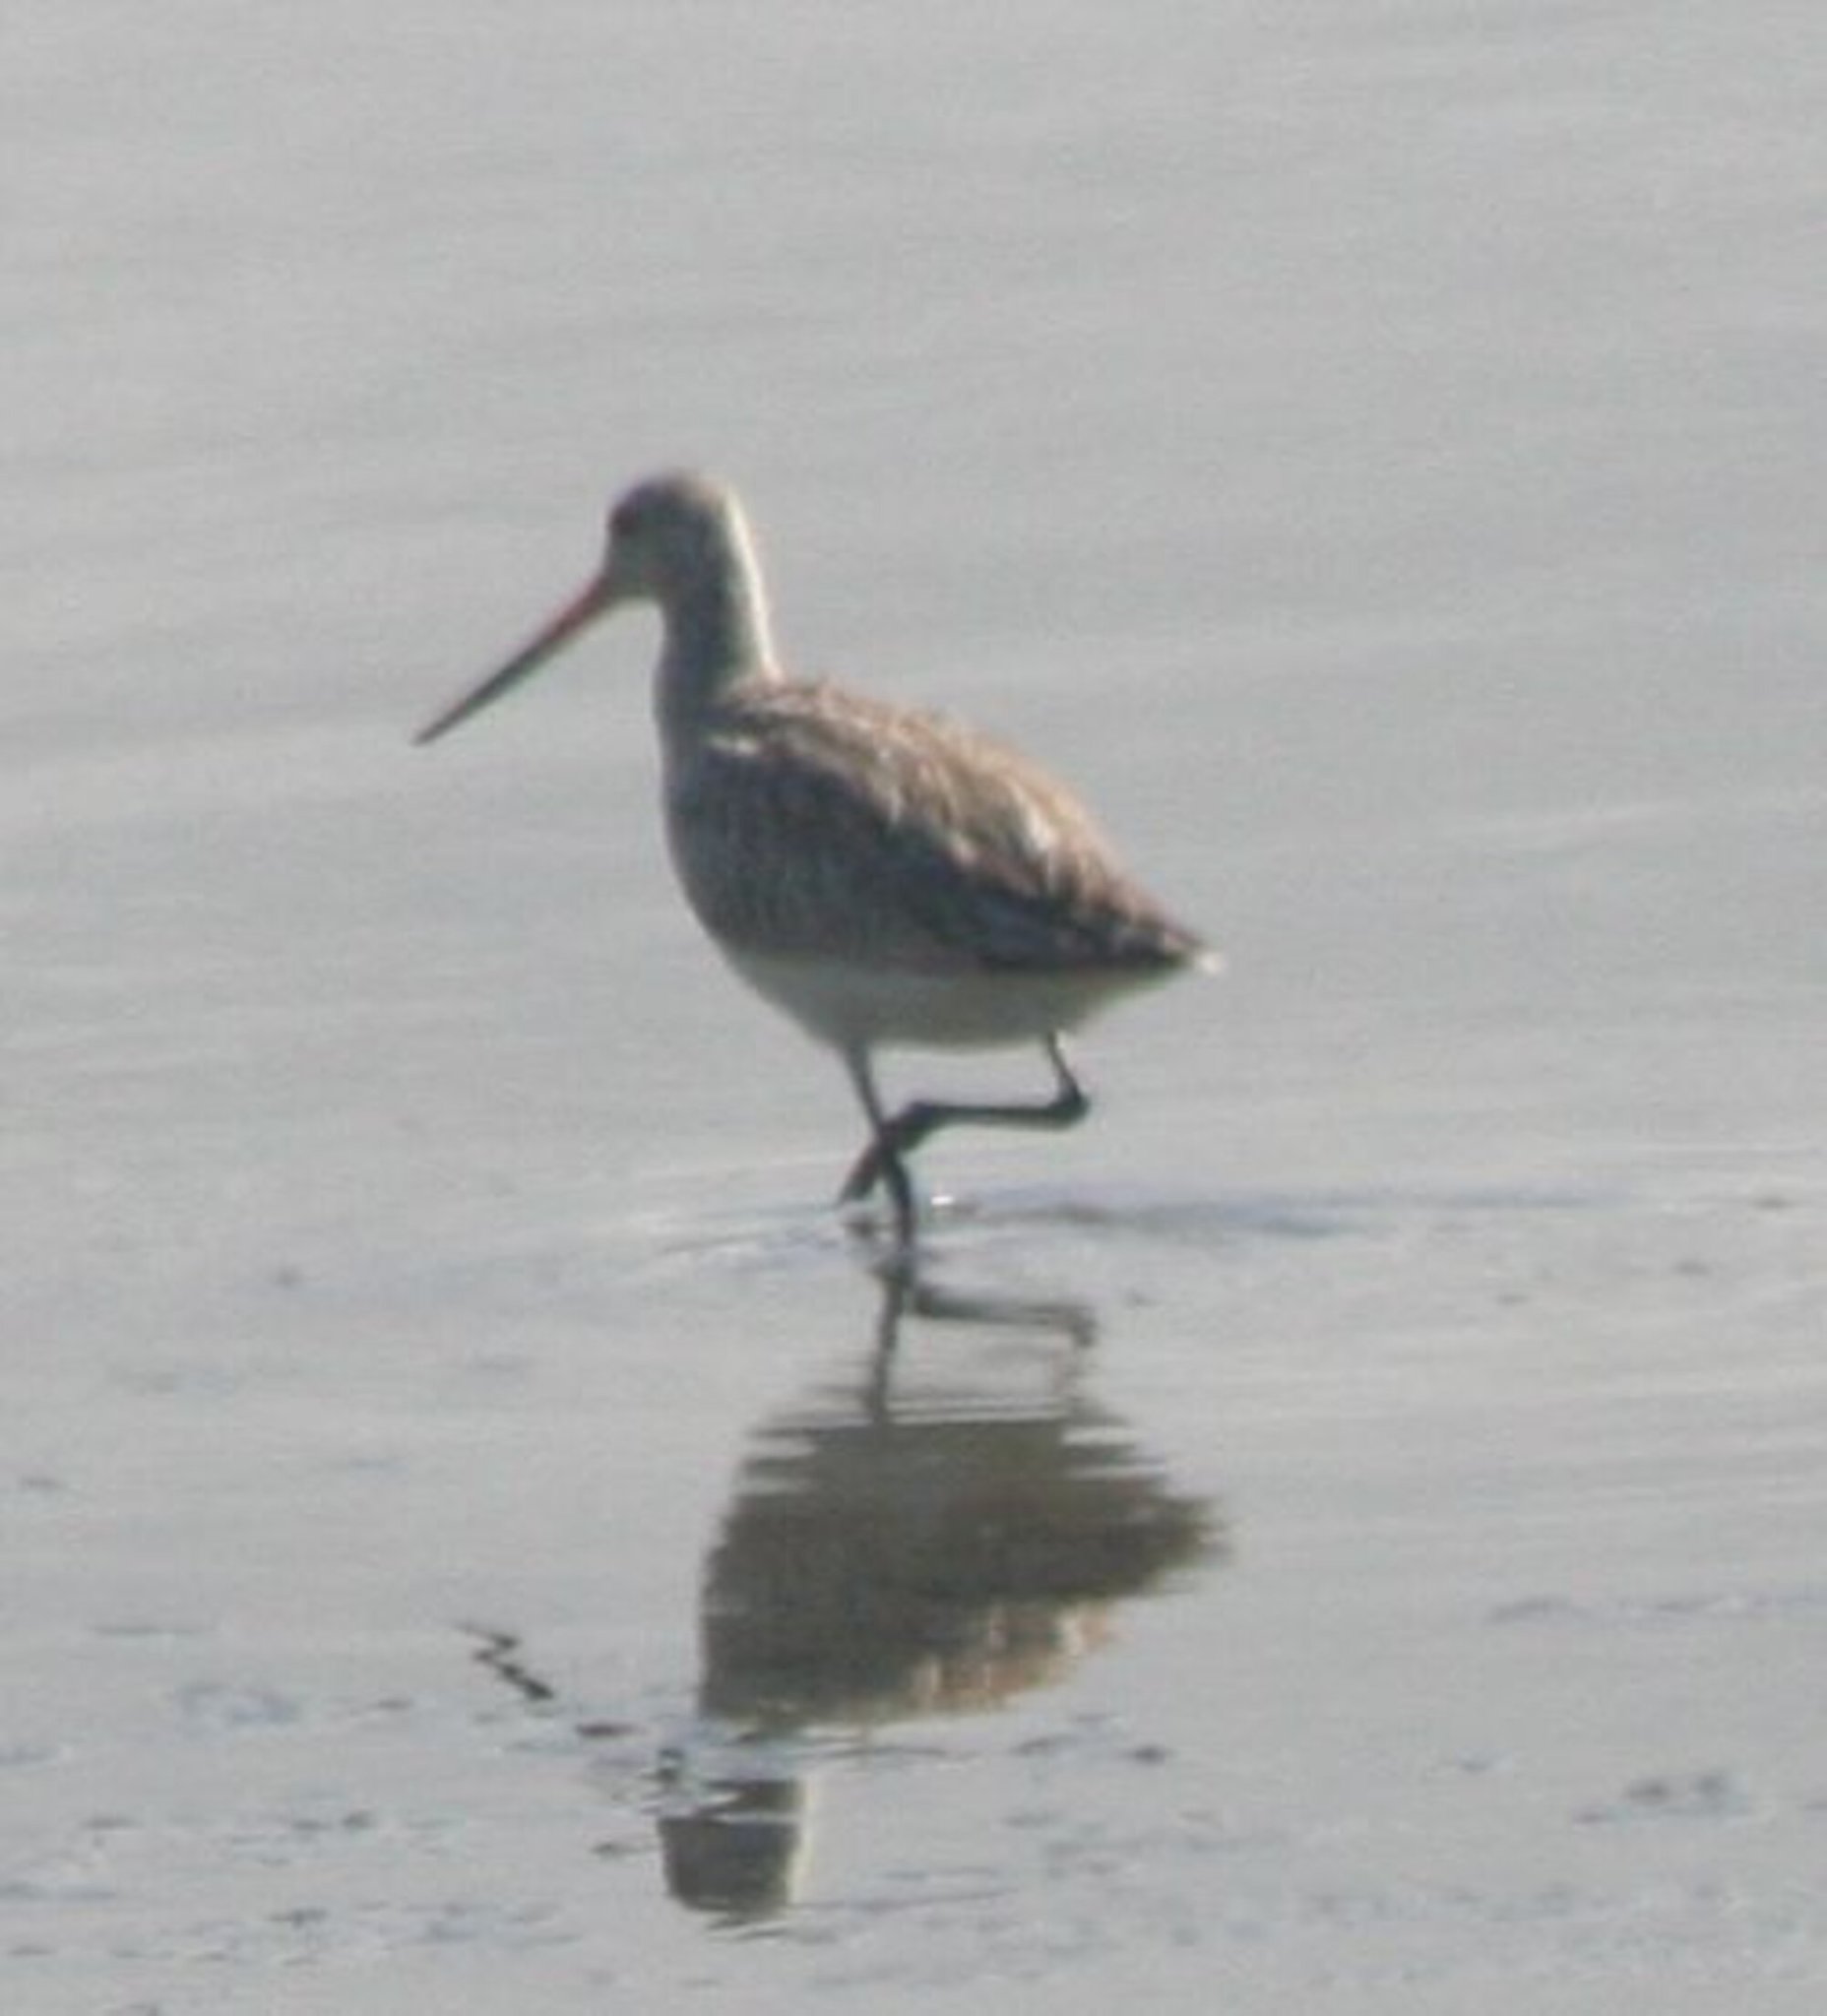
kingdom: Animalia
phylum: Chordata
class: Aves
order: Charadriiformes
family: Scolopacidae
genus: Limosa
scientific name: Limosa lapponica
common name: Bar-tailed godwit
